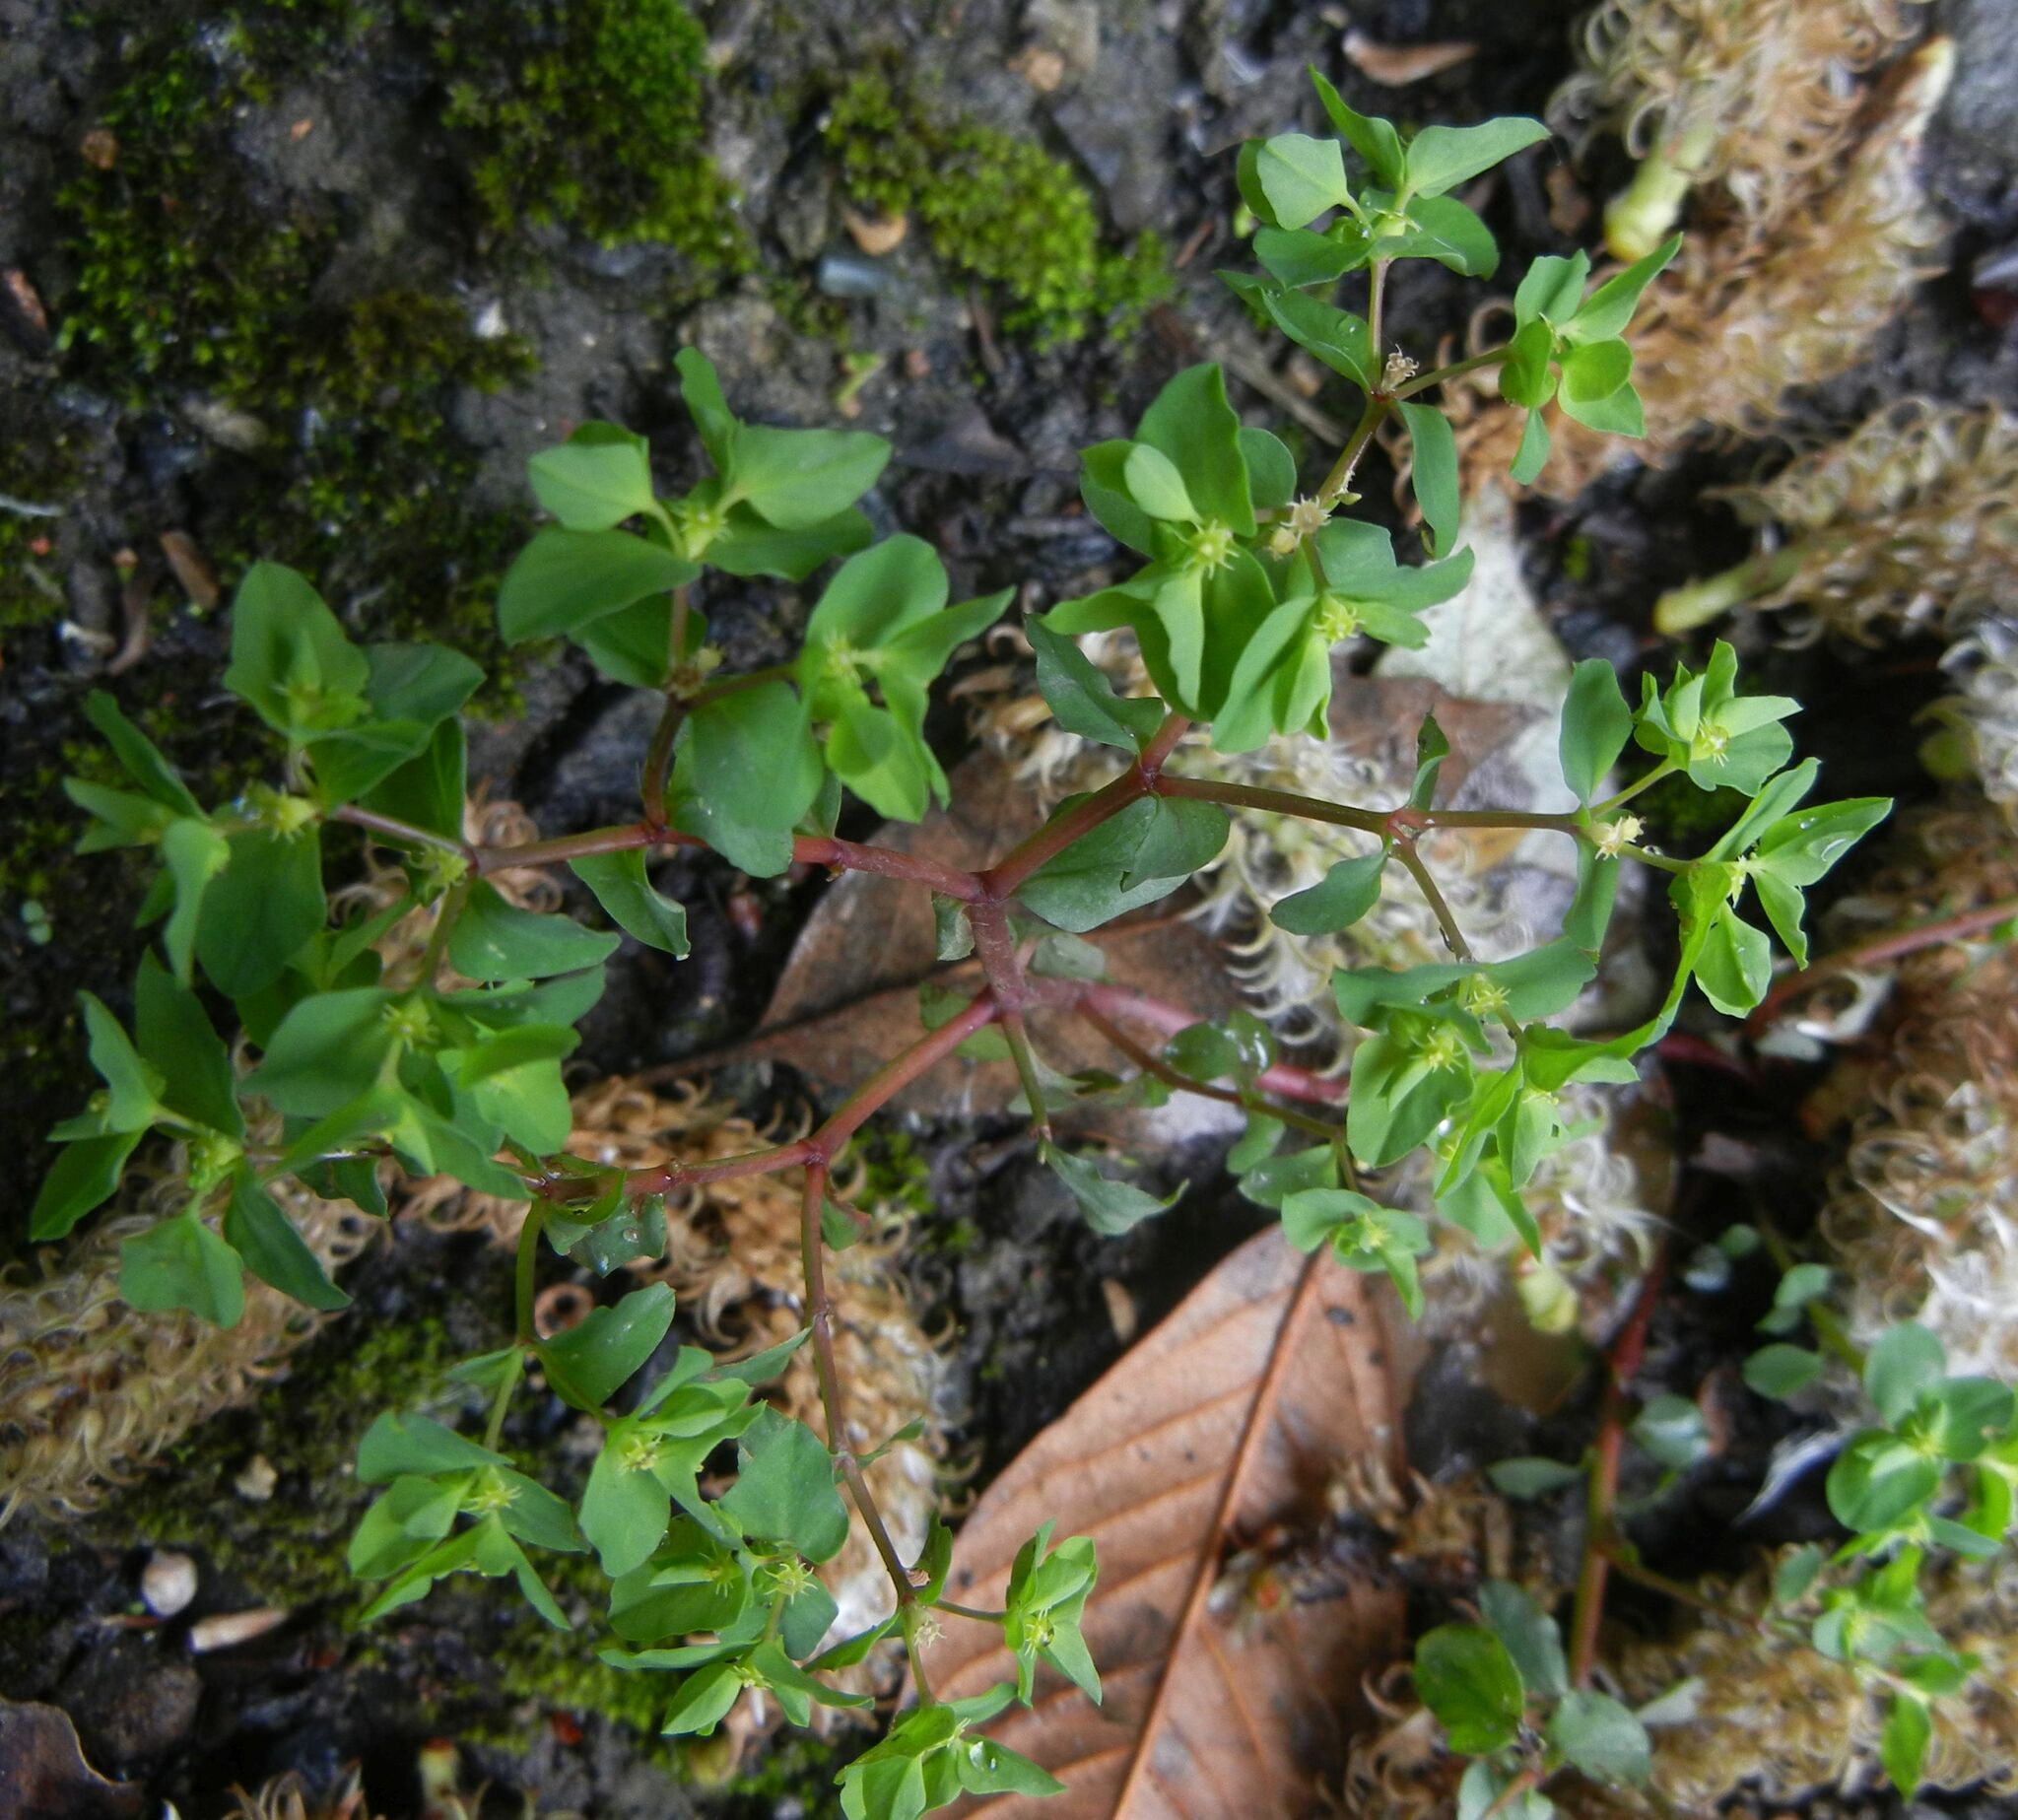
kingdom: Plantae
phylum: Tracheophyta
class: Magnoliopsida
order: Malpighiales
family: Euphorbiaceae
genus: Euphorbia
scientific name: Euphorbia peplus
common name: Petty spurge
